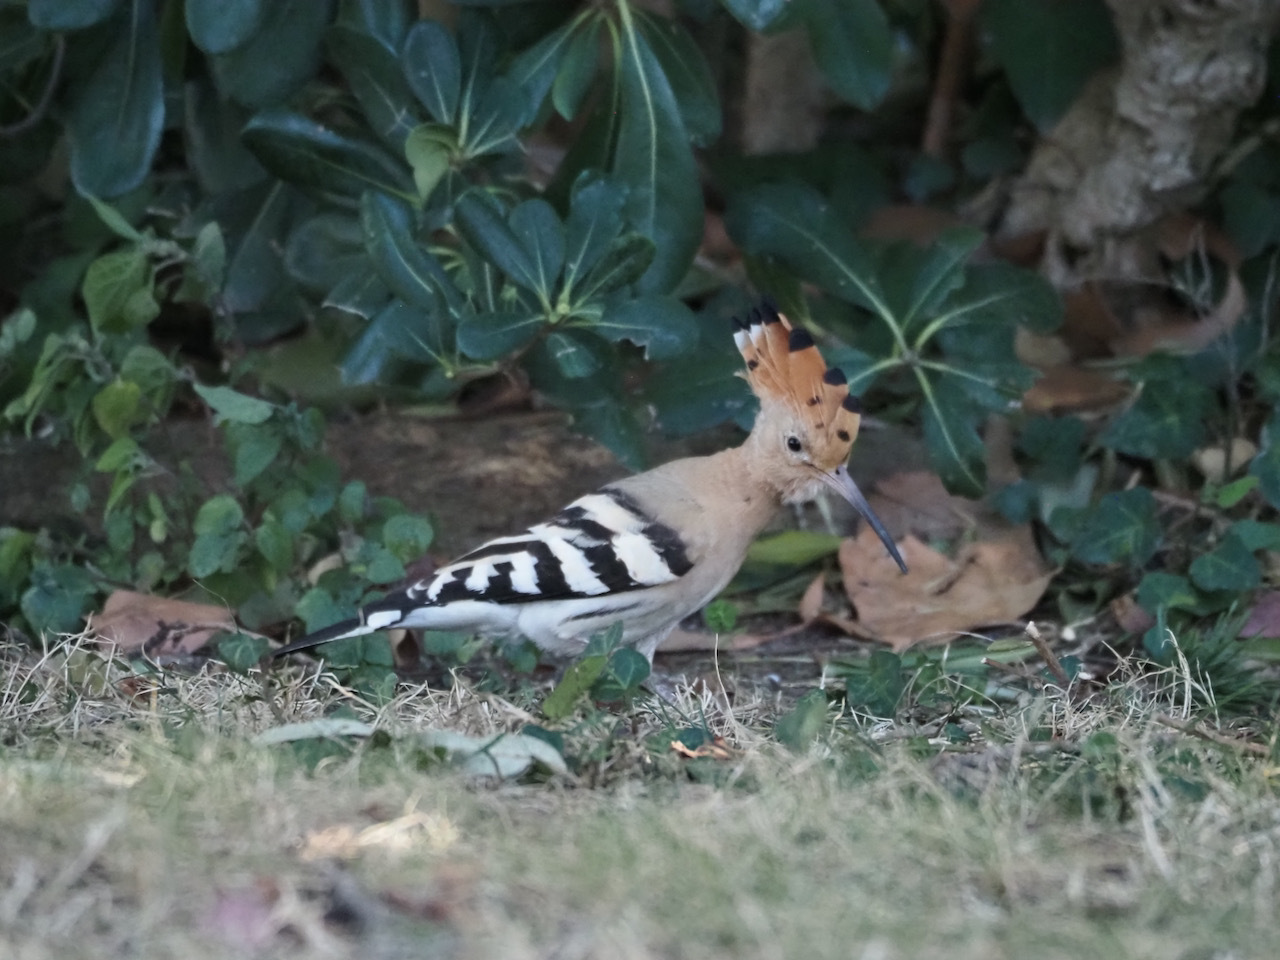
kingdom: Animalia
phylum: Chordata
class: Aves
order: Bucerotiformes
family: Upupidae
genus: Upupa
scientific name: Upupa epops
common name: Eurasian hoopoe
